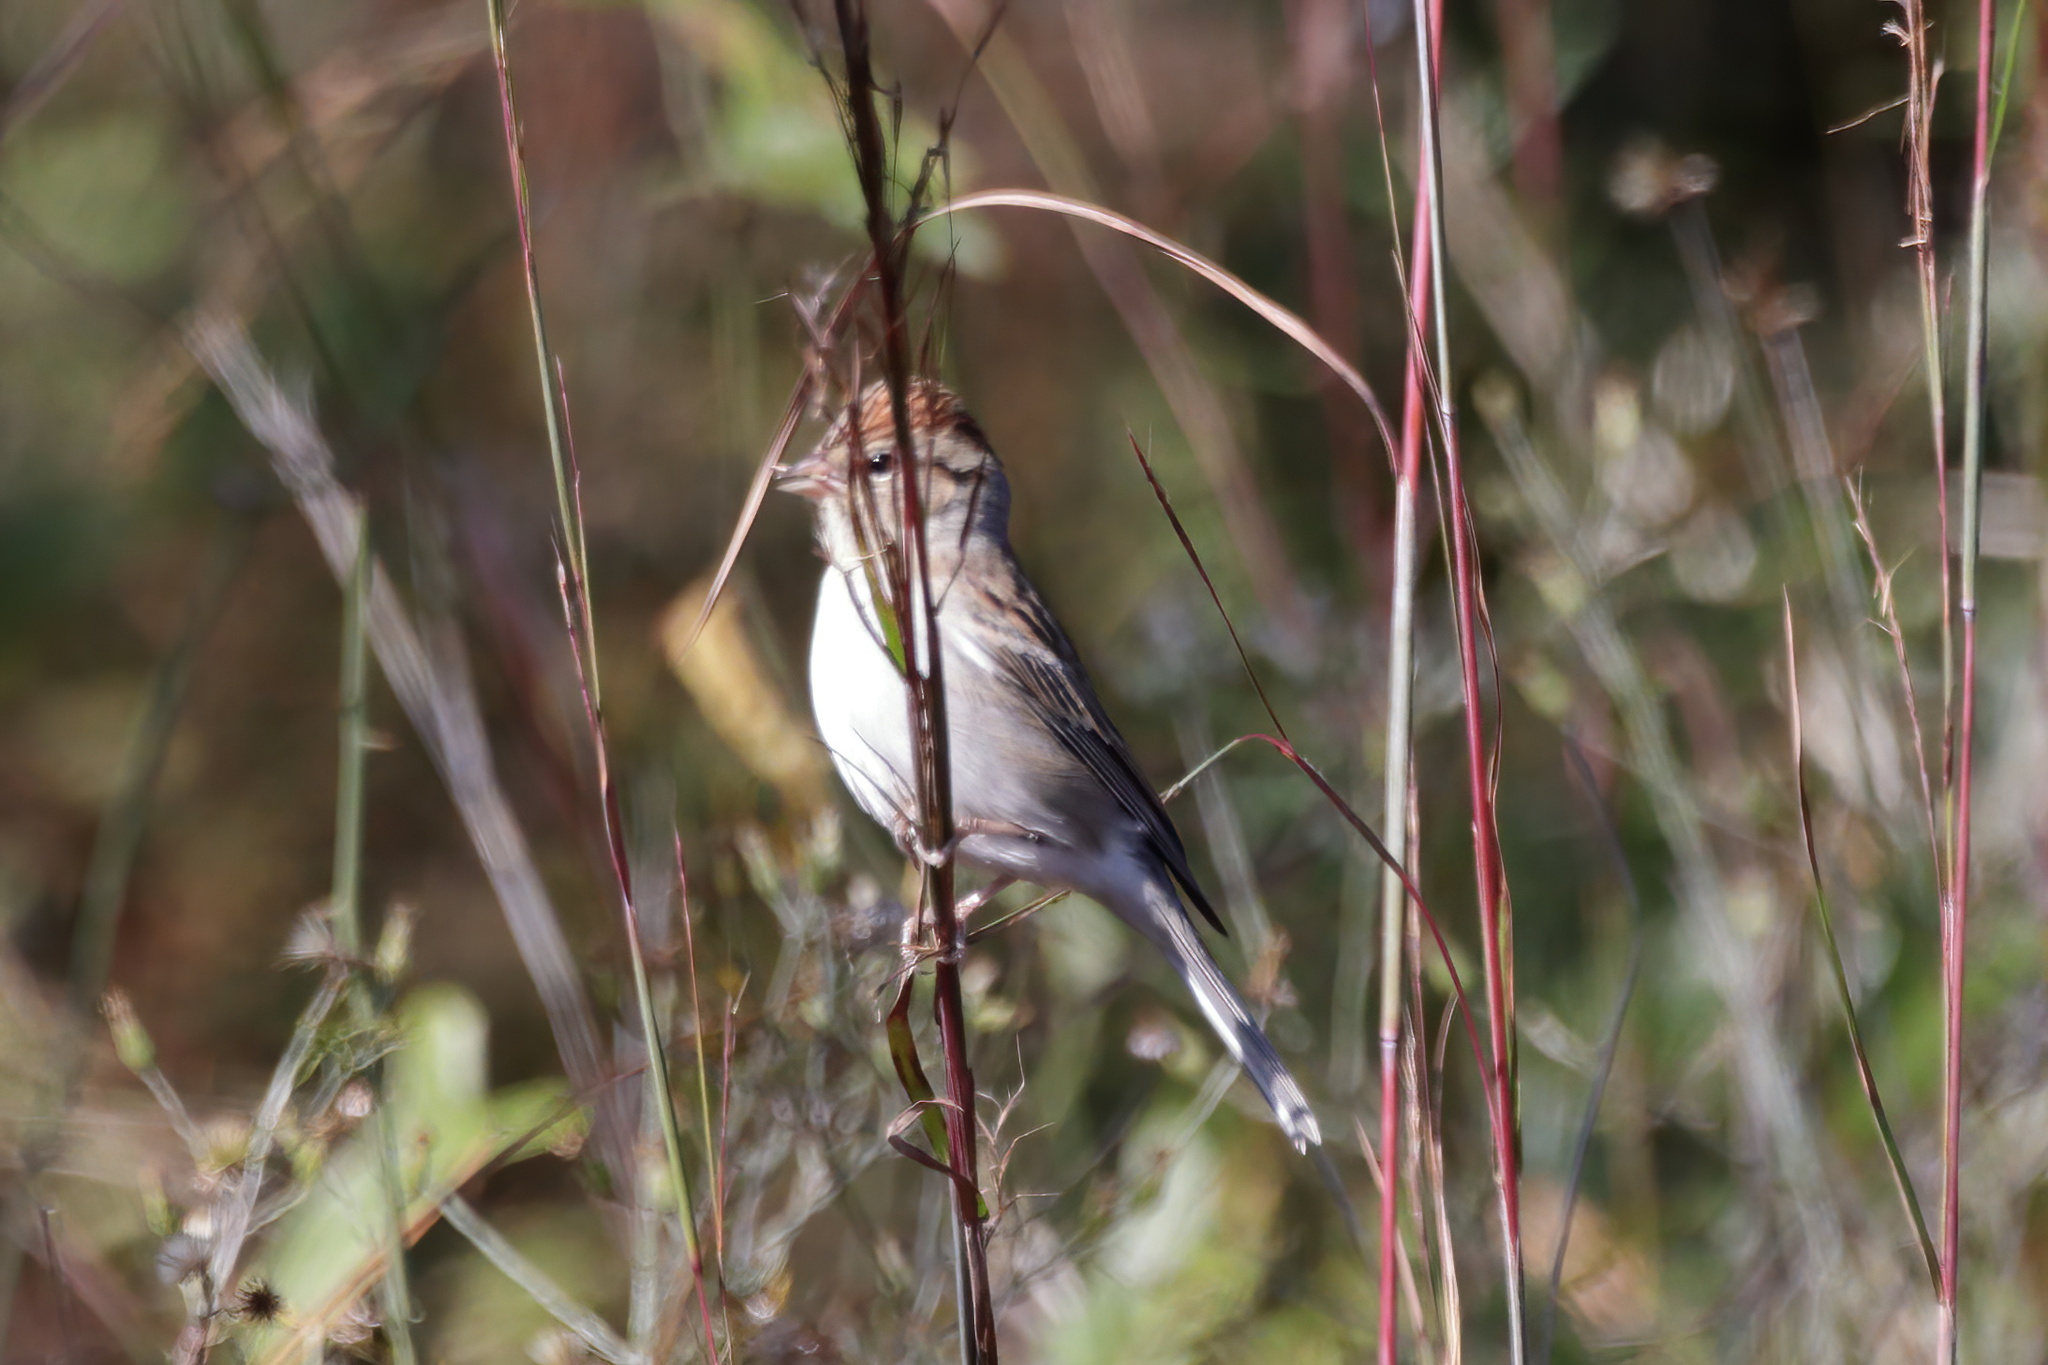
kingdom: Animalia
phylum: Chordata
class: Aves
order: Passeriformes
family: Passerellidae
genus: Spizella
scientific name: Spizella passerina
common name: Chipping sparrow
